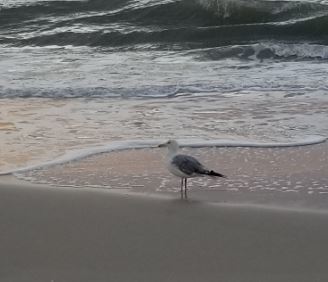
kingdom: Animalia
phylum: Chordata
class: Aves
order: Charadriiformes
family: Laridae
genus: Larus
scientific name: Larus argentatus
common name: Herring gull
